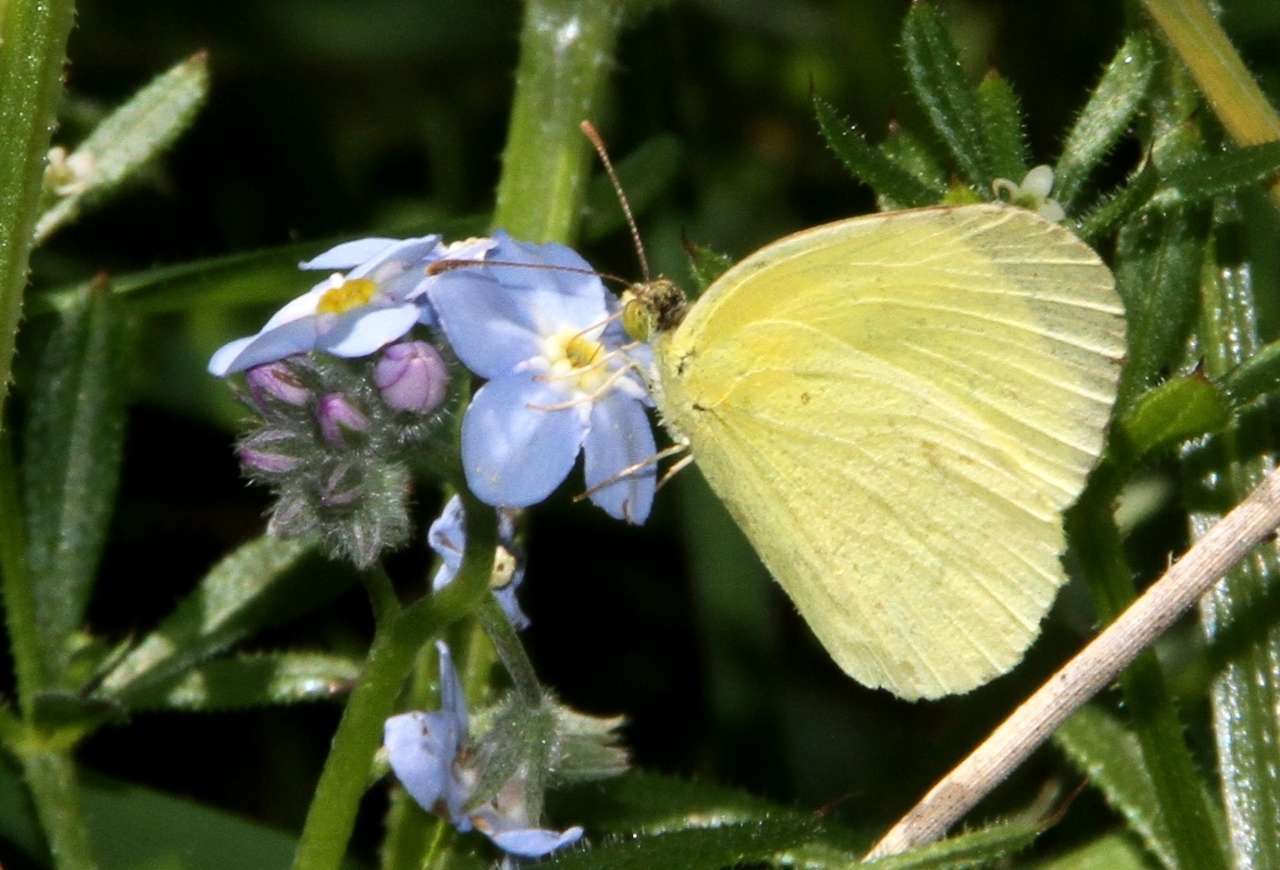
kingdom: Animalia
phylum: Arthropoda
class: Insecta
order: Lepidoptera
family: Pieridae
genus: Eurema
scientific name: Eurema smilax
